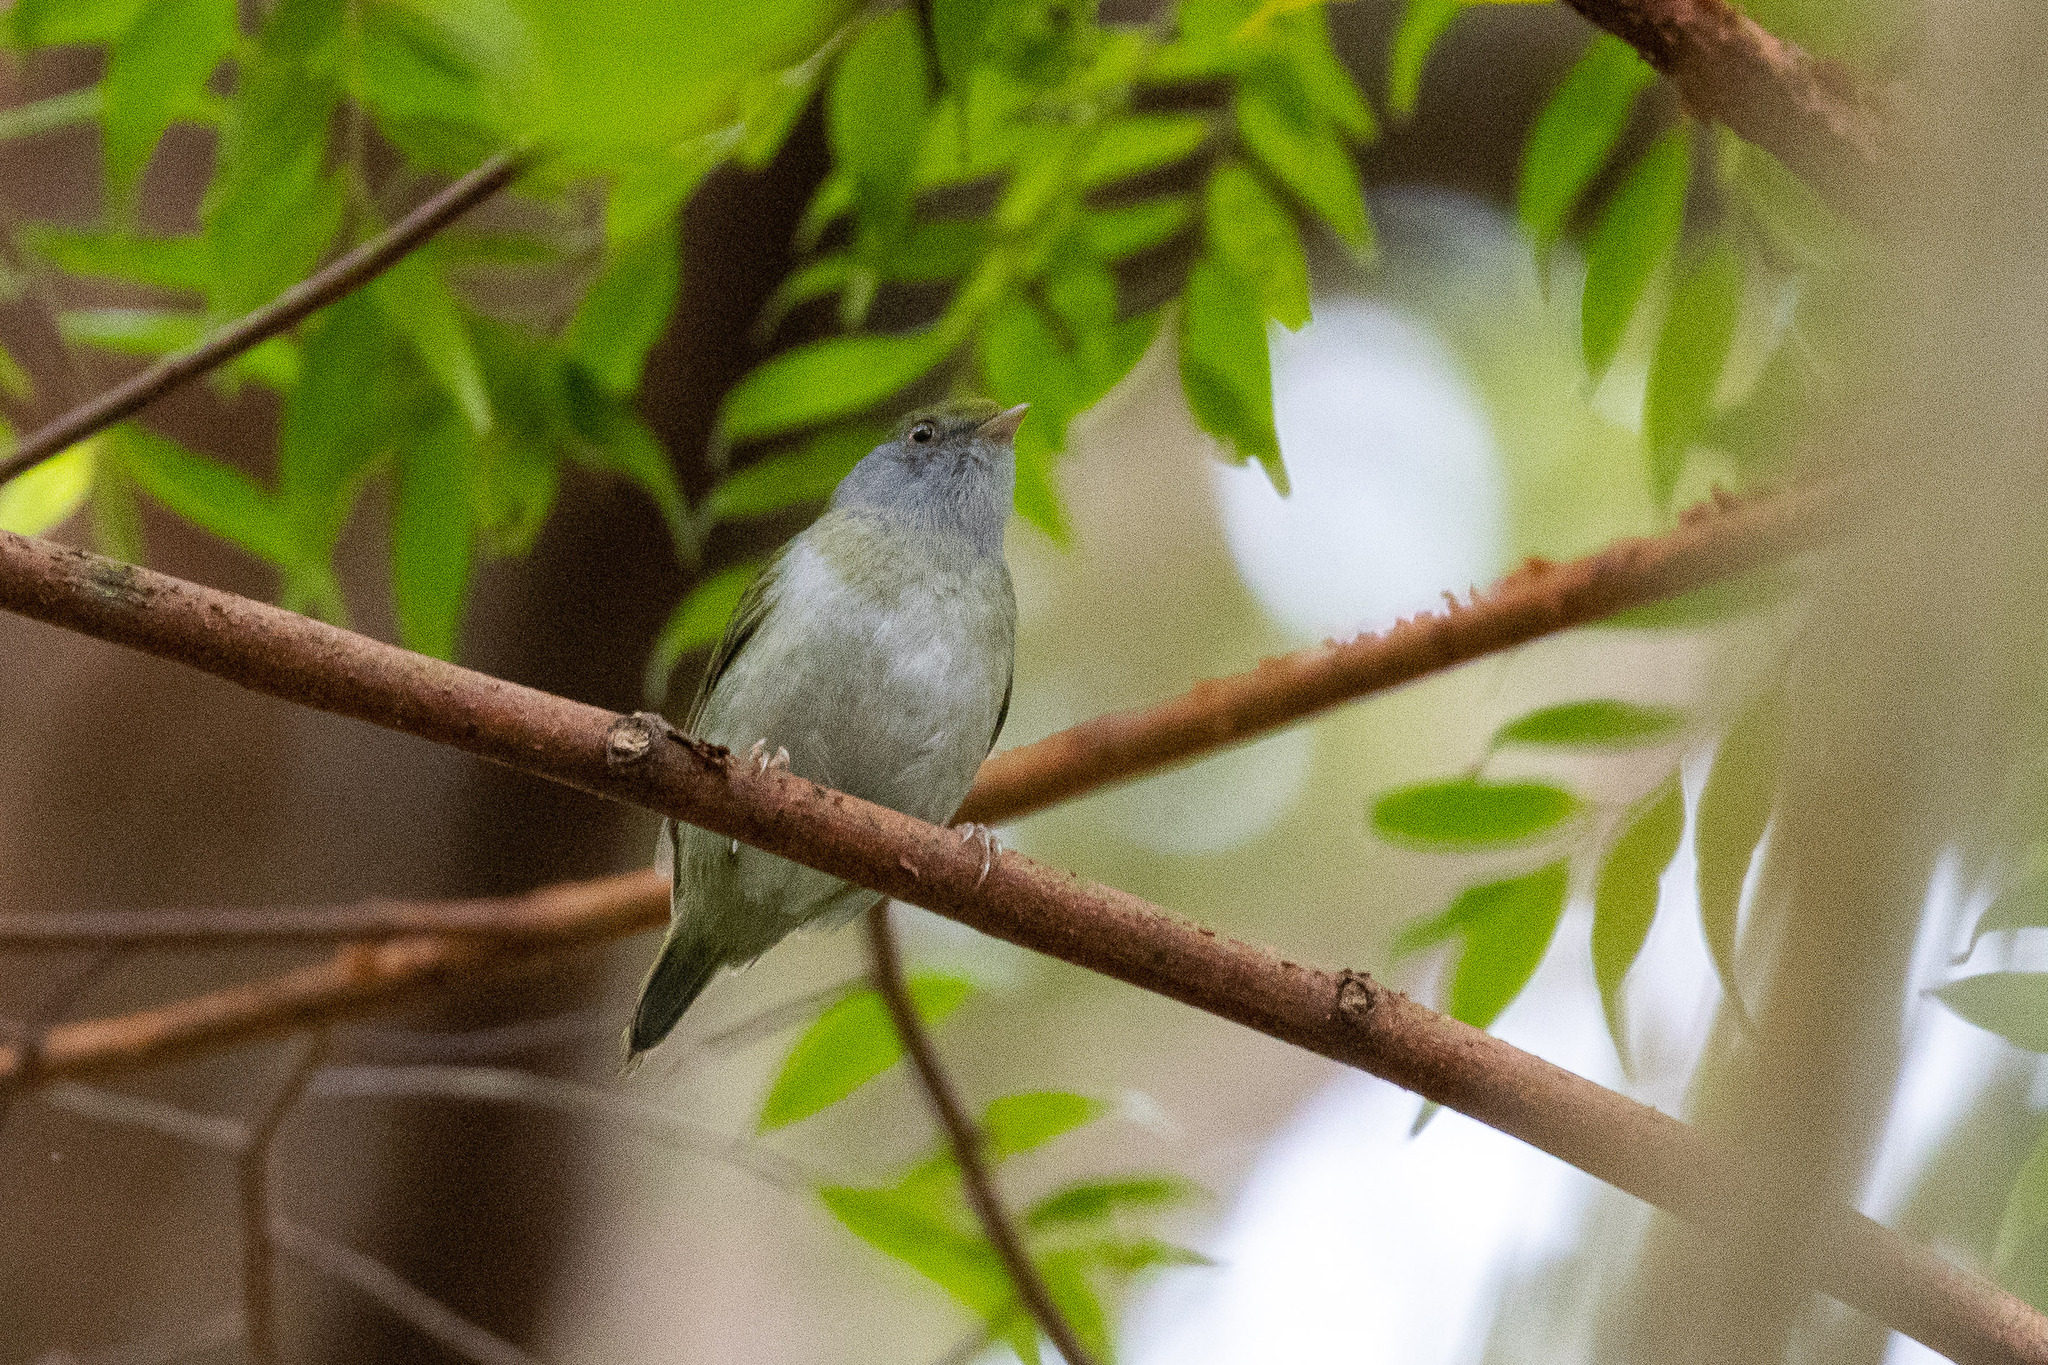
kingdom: Animalia
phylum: Chordata
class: Aves
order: Passeriformes
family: Pipridae
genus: Ilicura
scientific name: Ilicura militaris
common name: Pin-tailed manakin
